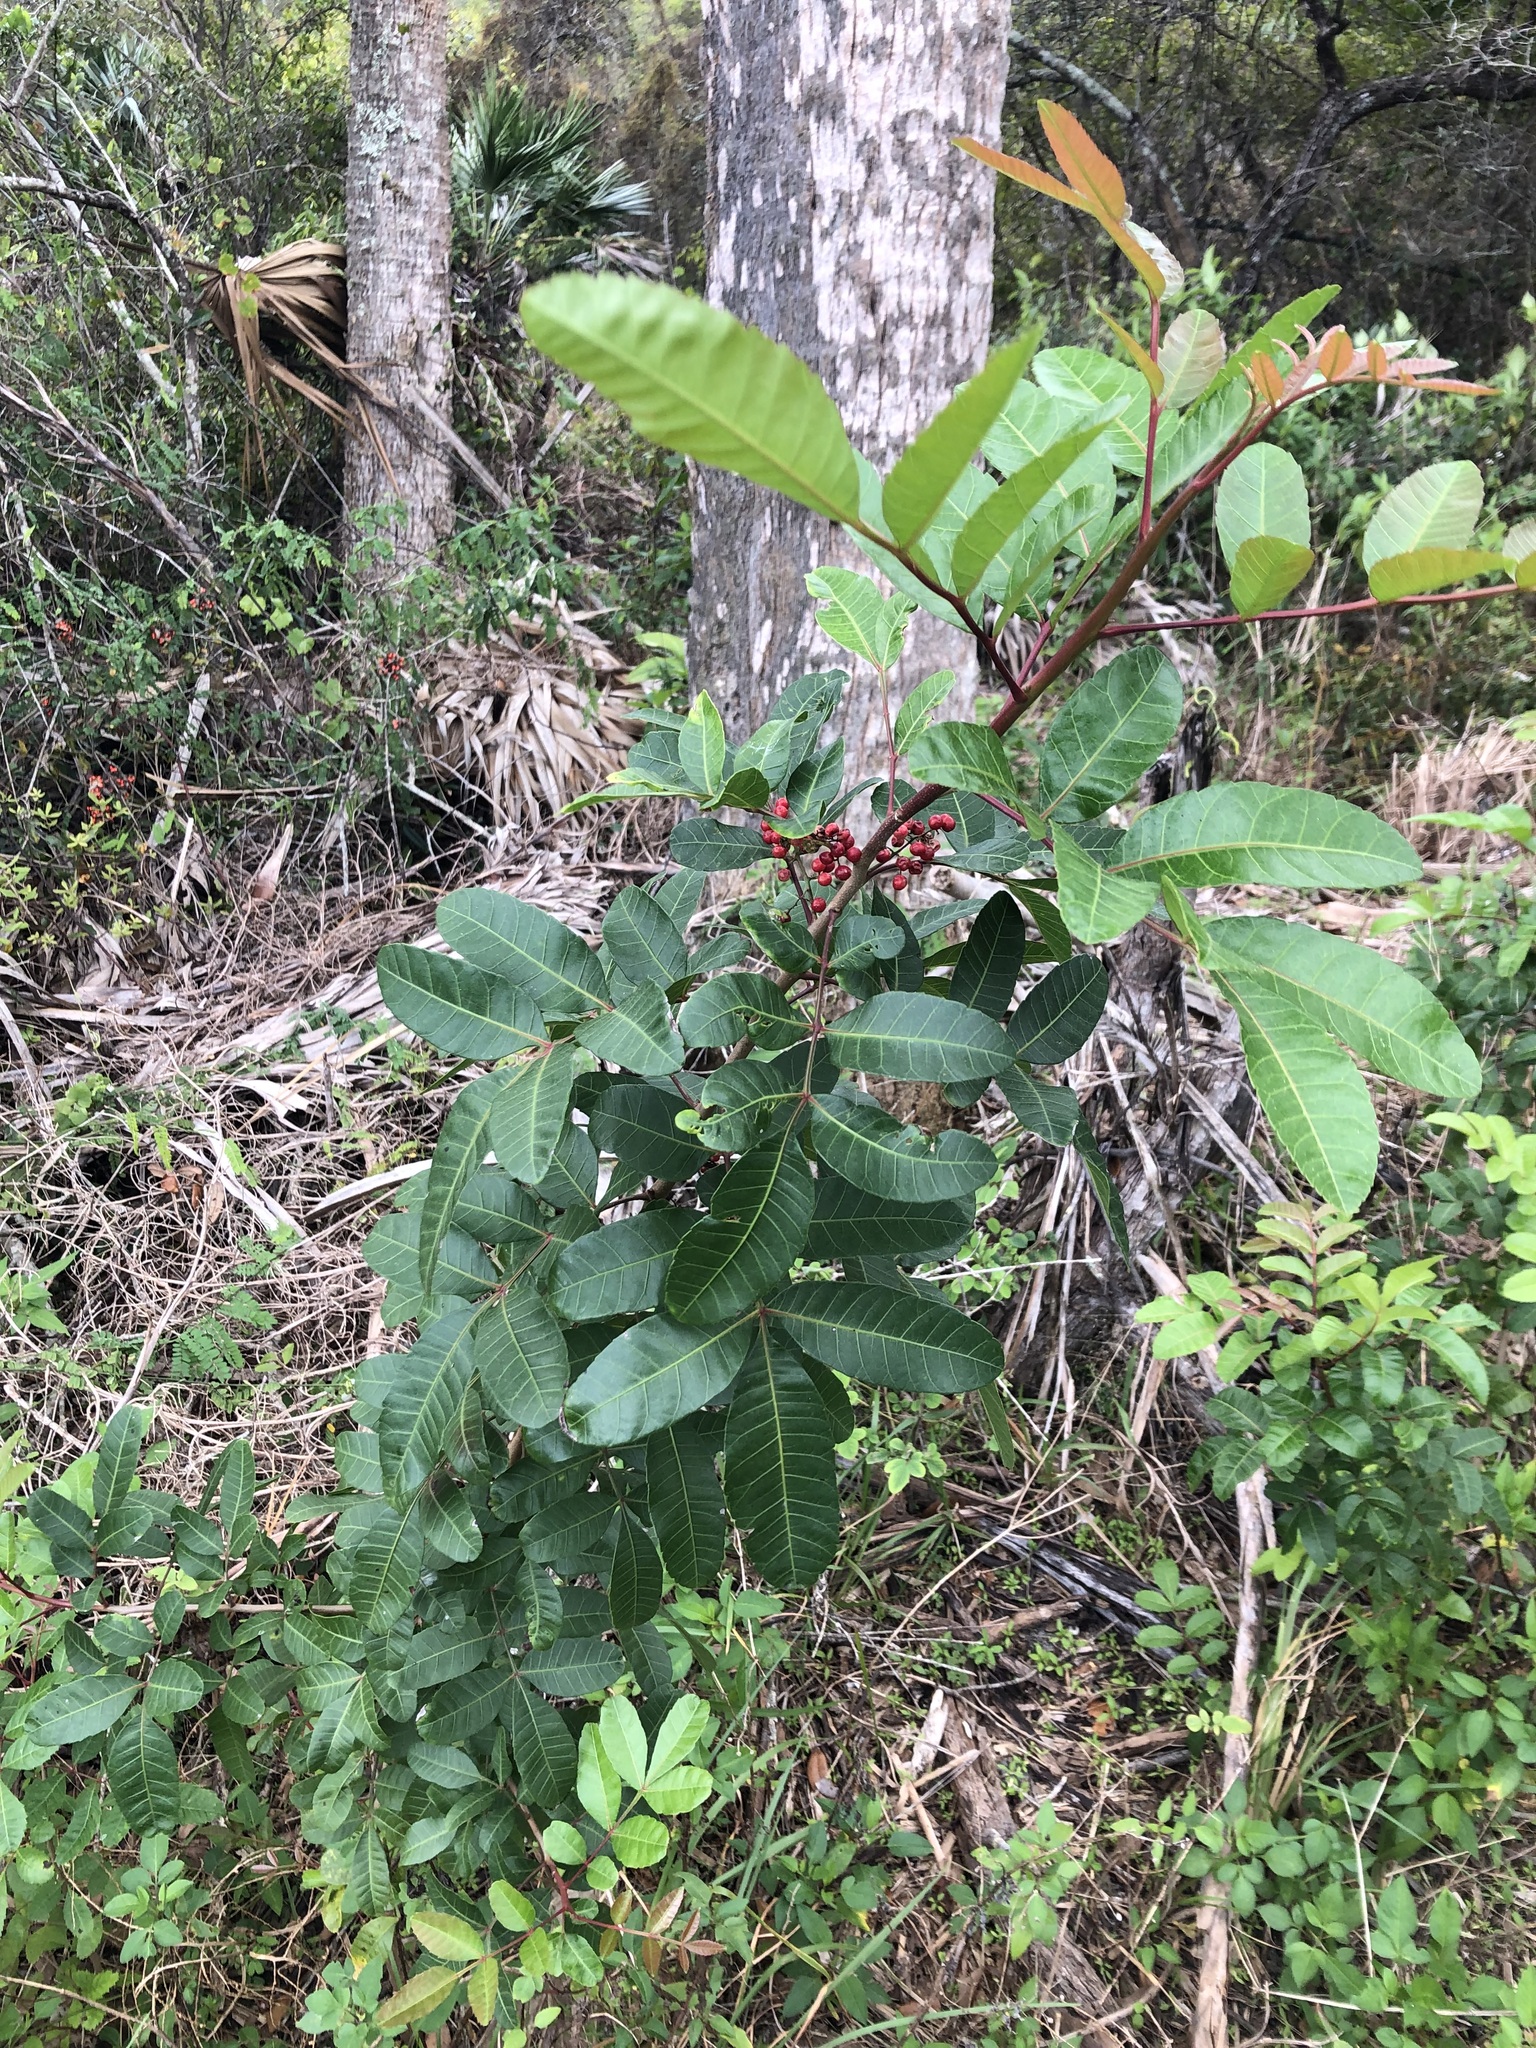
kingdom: Plantae
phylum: Tracheophyta
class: Magnoliopsida
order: Sapindales
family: Anacardiaceae
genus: Schinus
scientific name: Schinus terebinthifolia
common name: Brazilian peppertree
